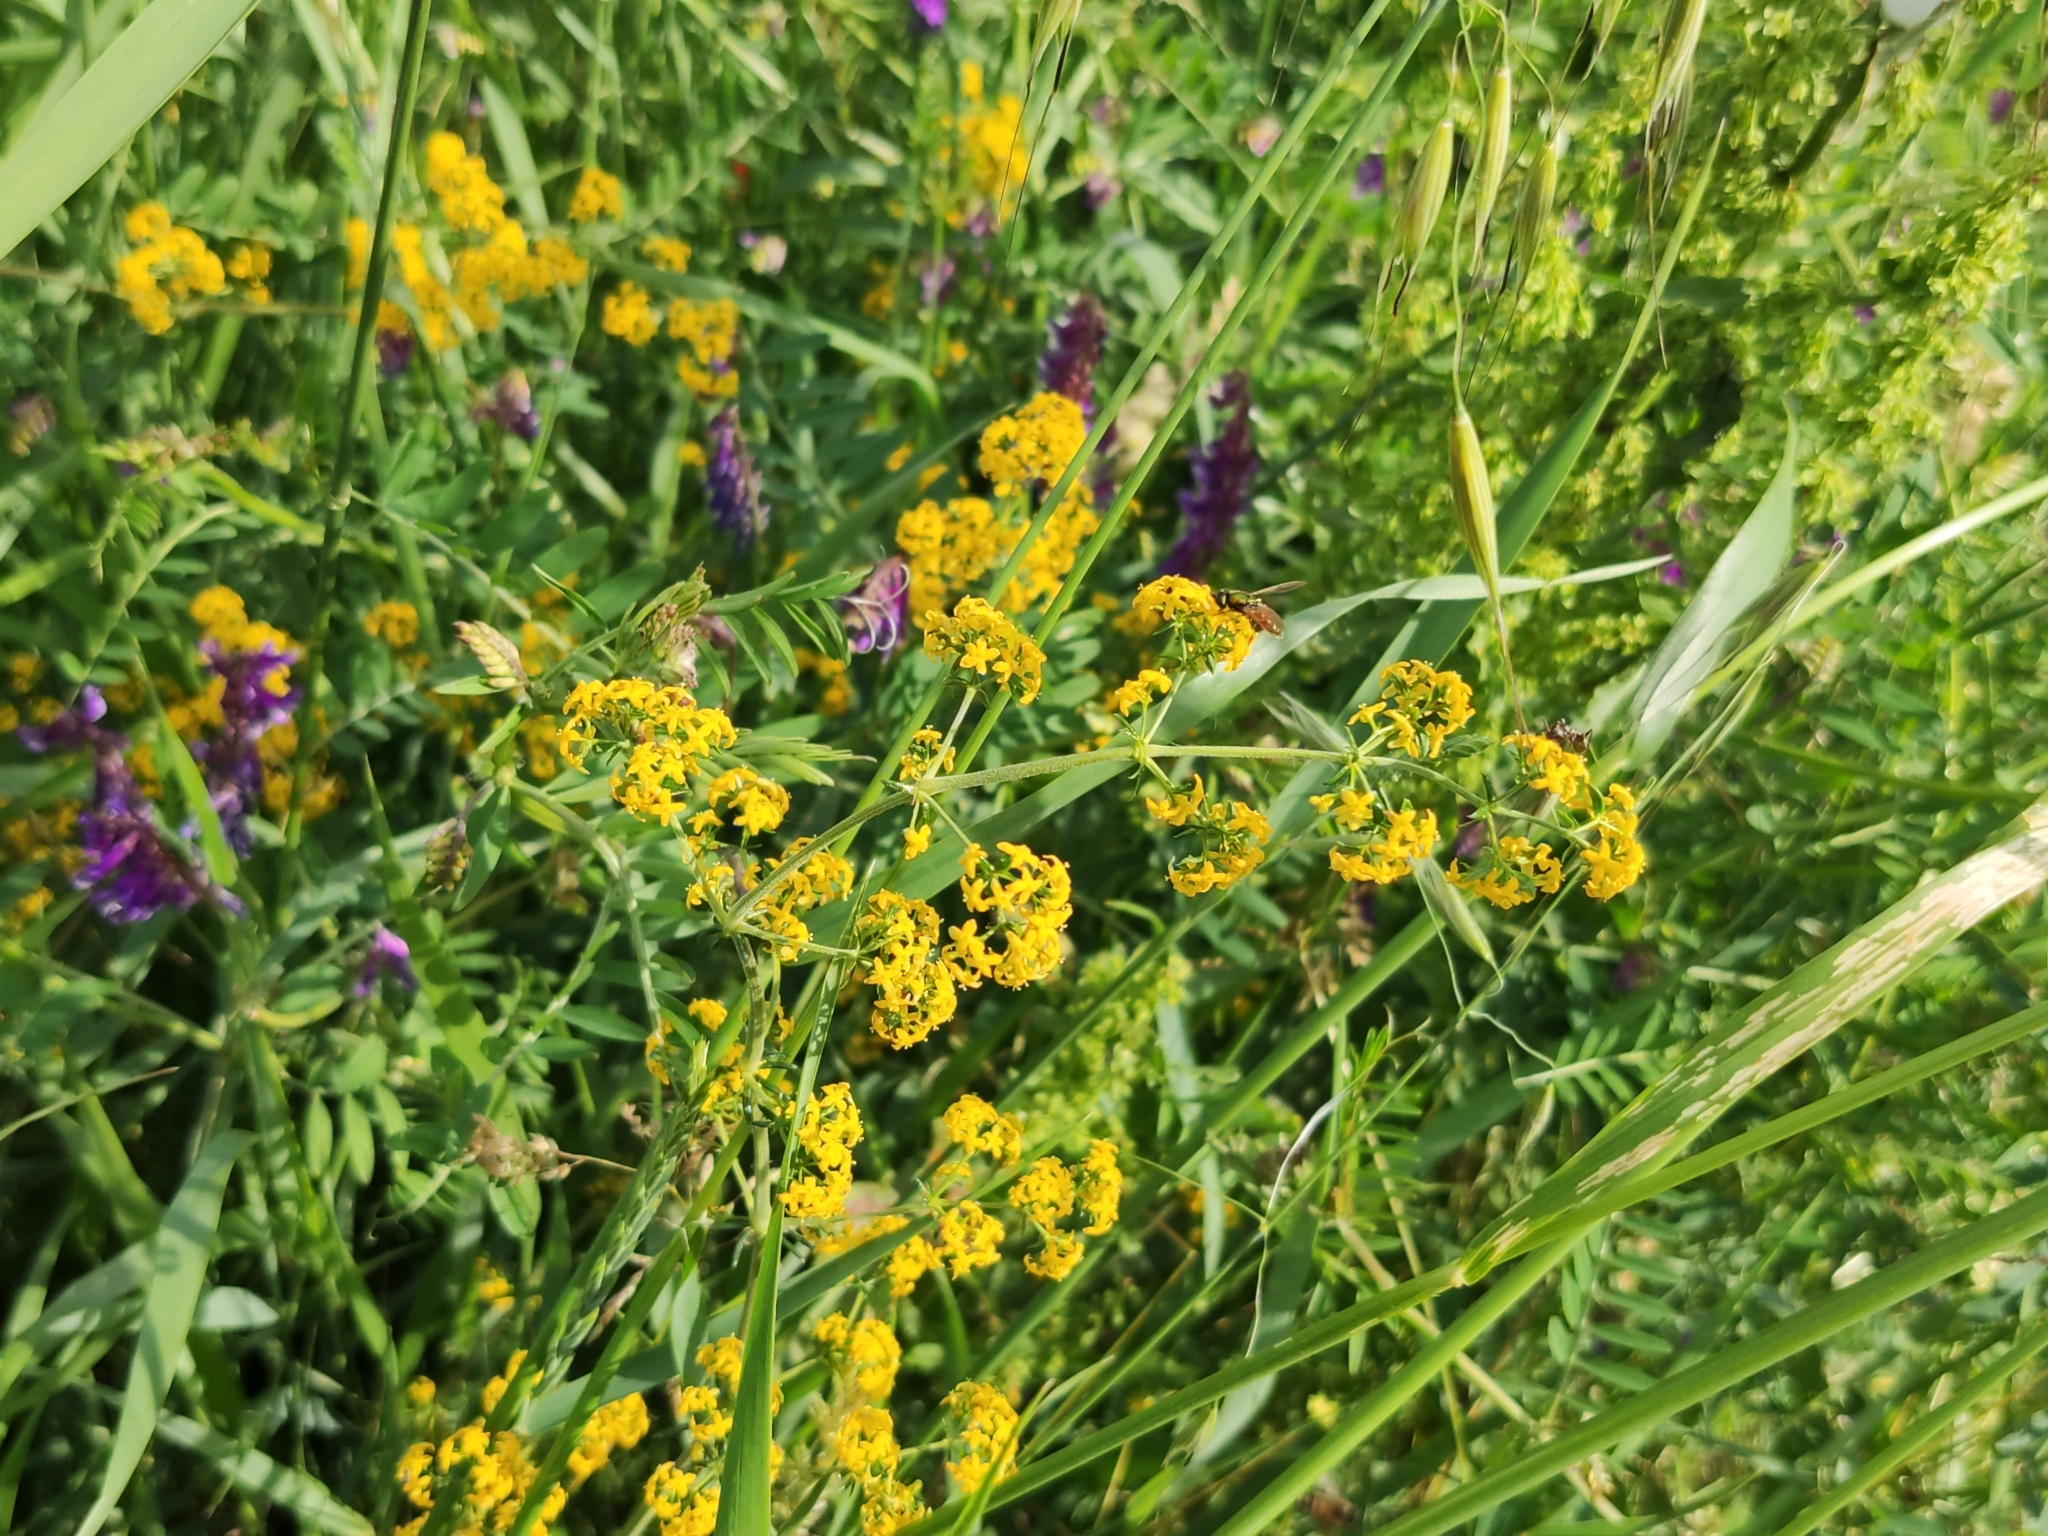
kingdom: Plantae
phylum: Tracheophyta
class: Magnoliopsida
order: Gentianales
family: Rubiaceae
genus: Galium
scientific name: Galium verum
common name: Lady's bedstraw
